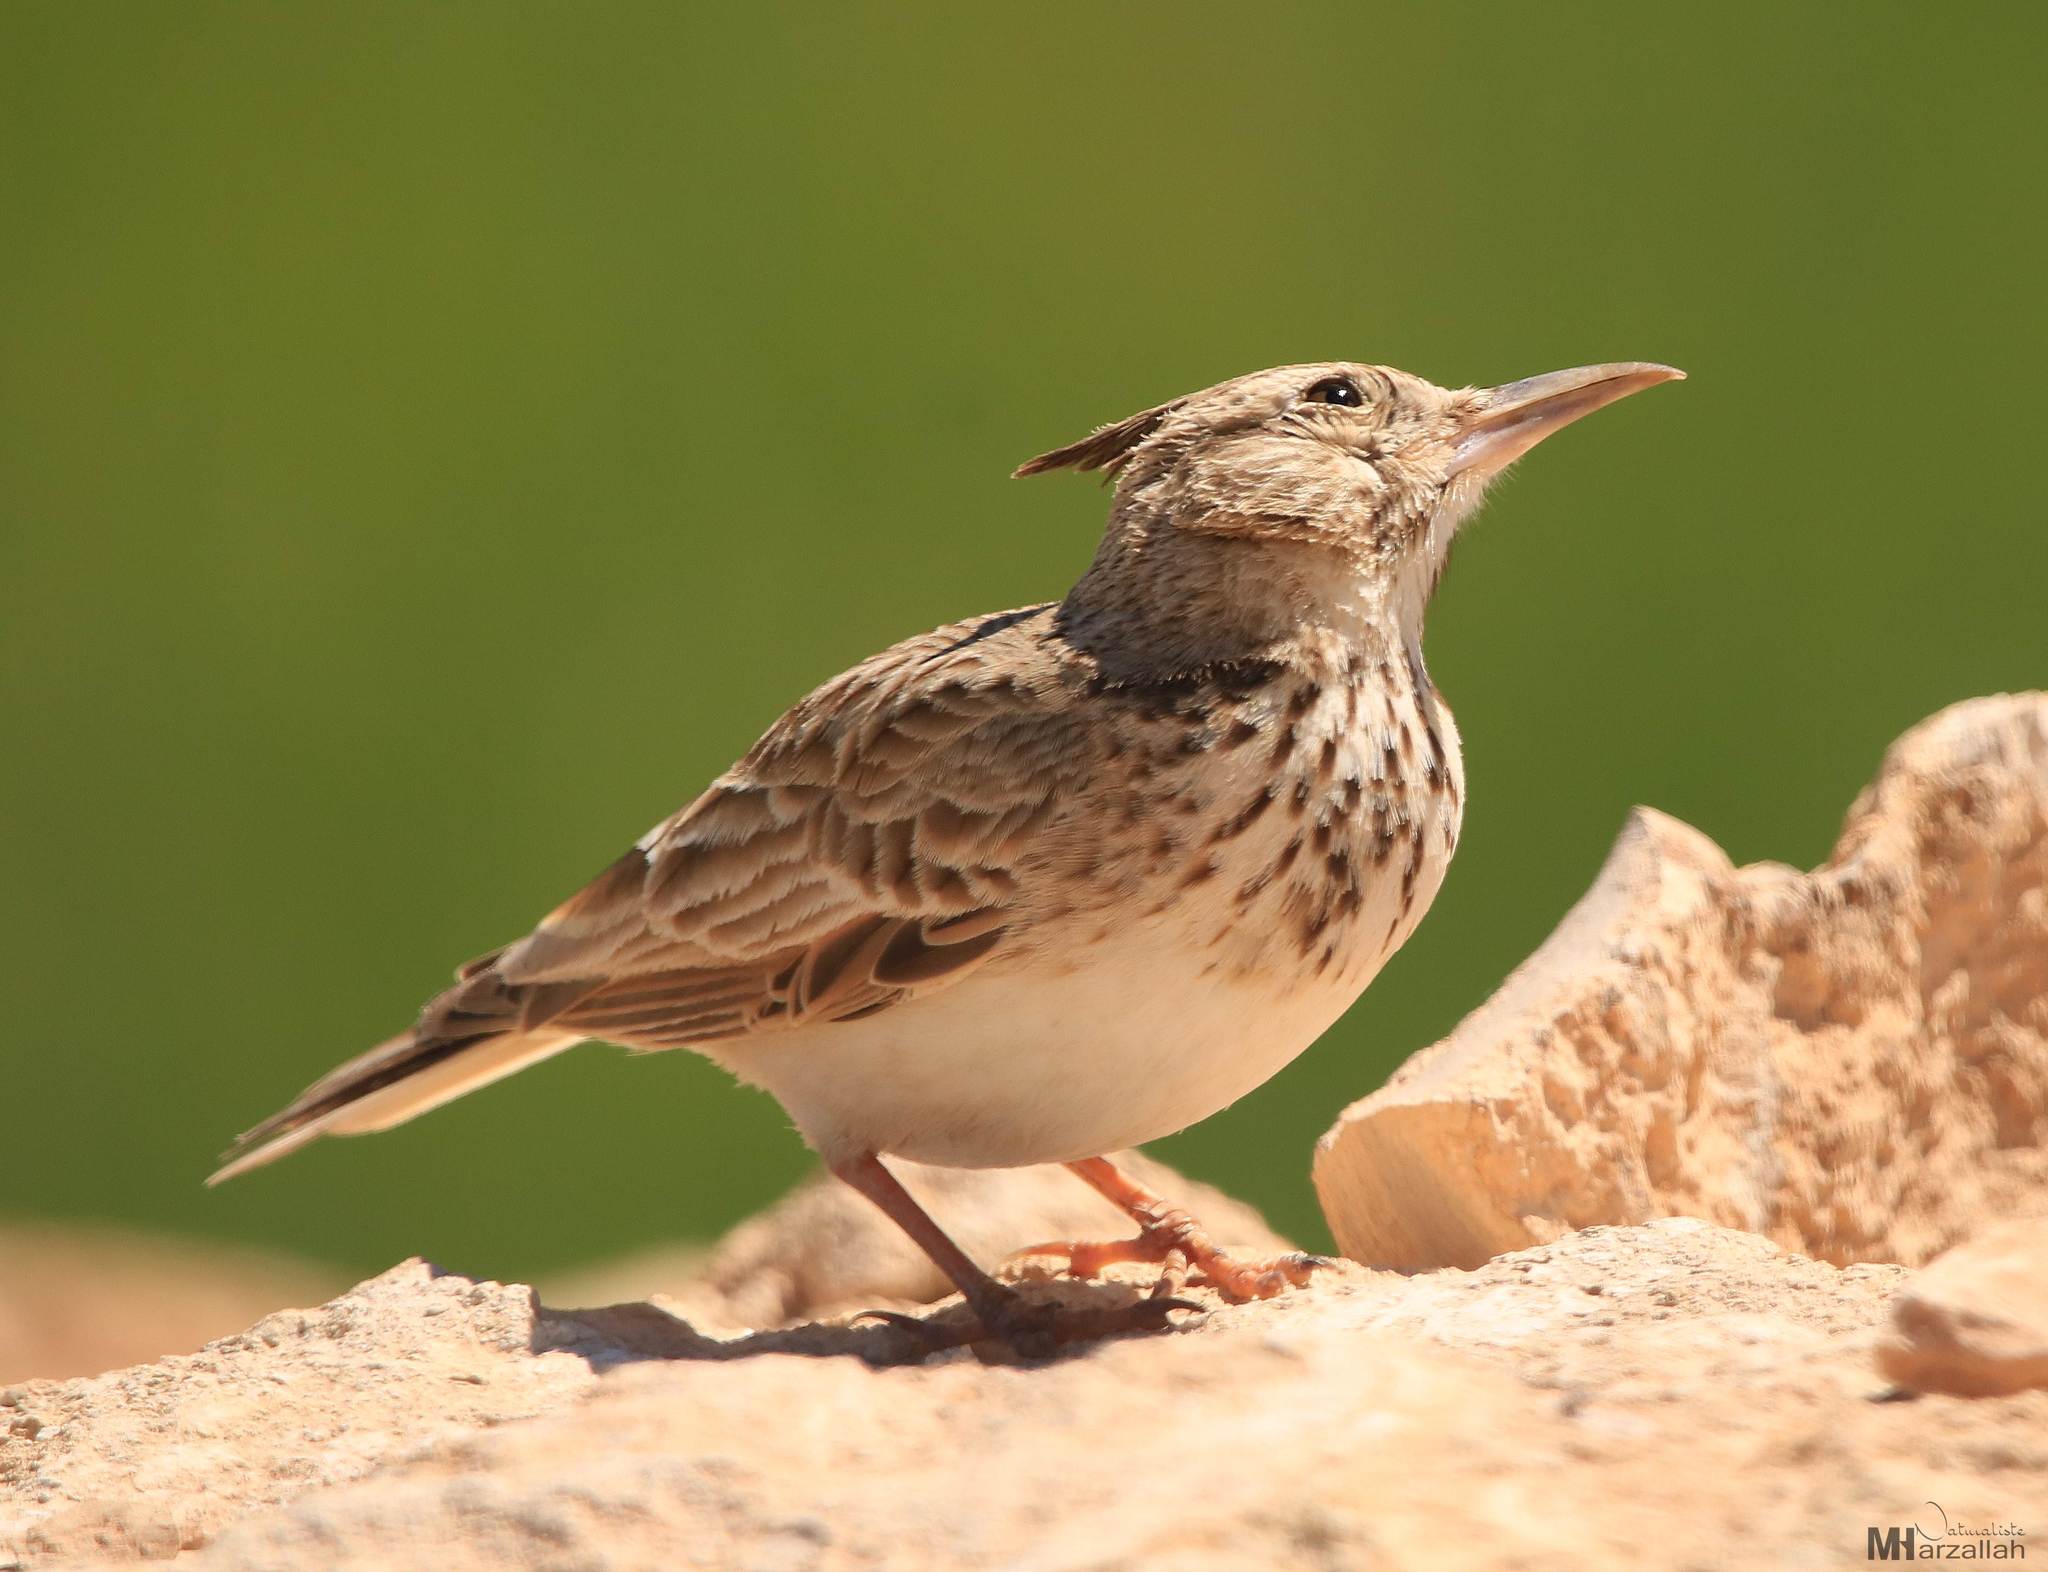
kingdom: Animalia
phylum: Chordata
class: Aves
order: Passeriformes
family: Alaudidae
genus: Galerida
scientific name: Galerida cristata
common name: Crested lark
